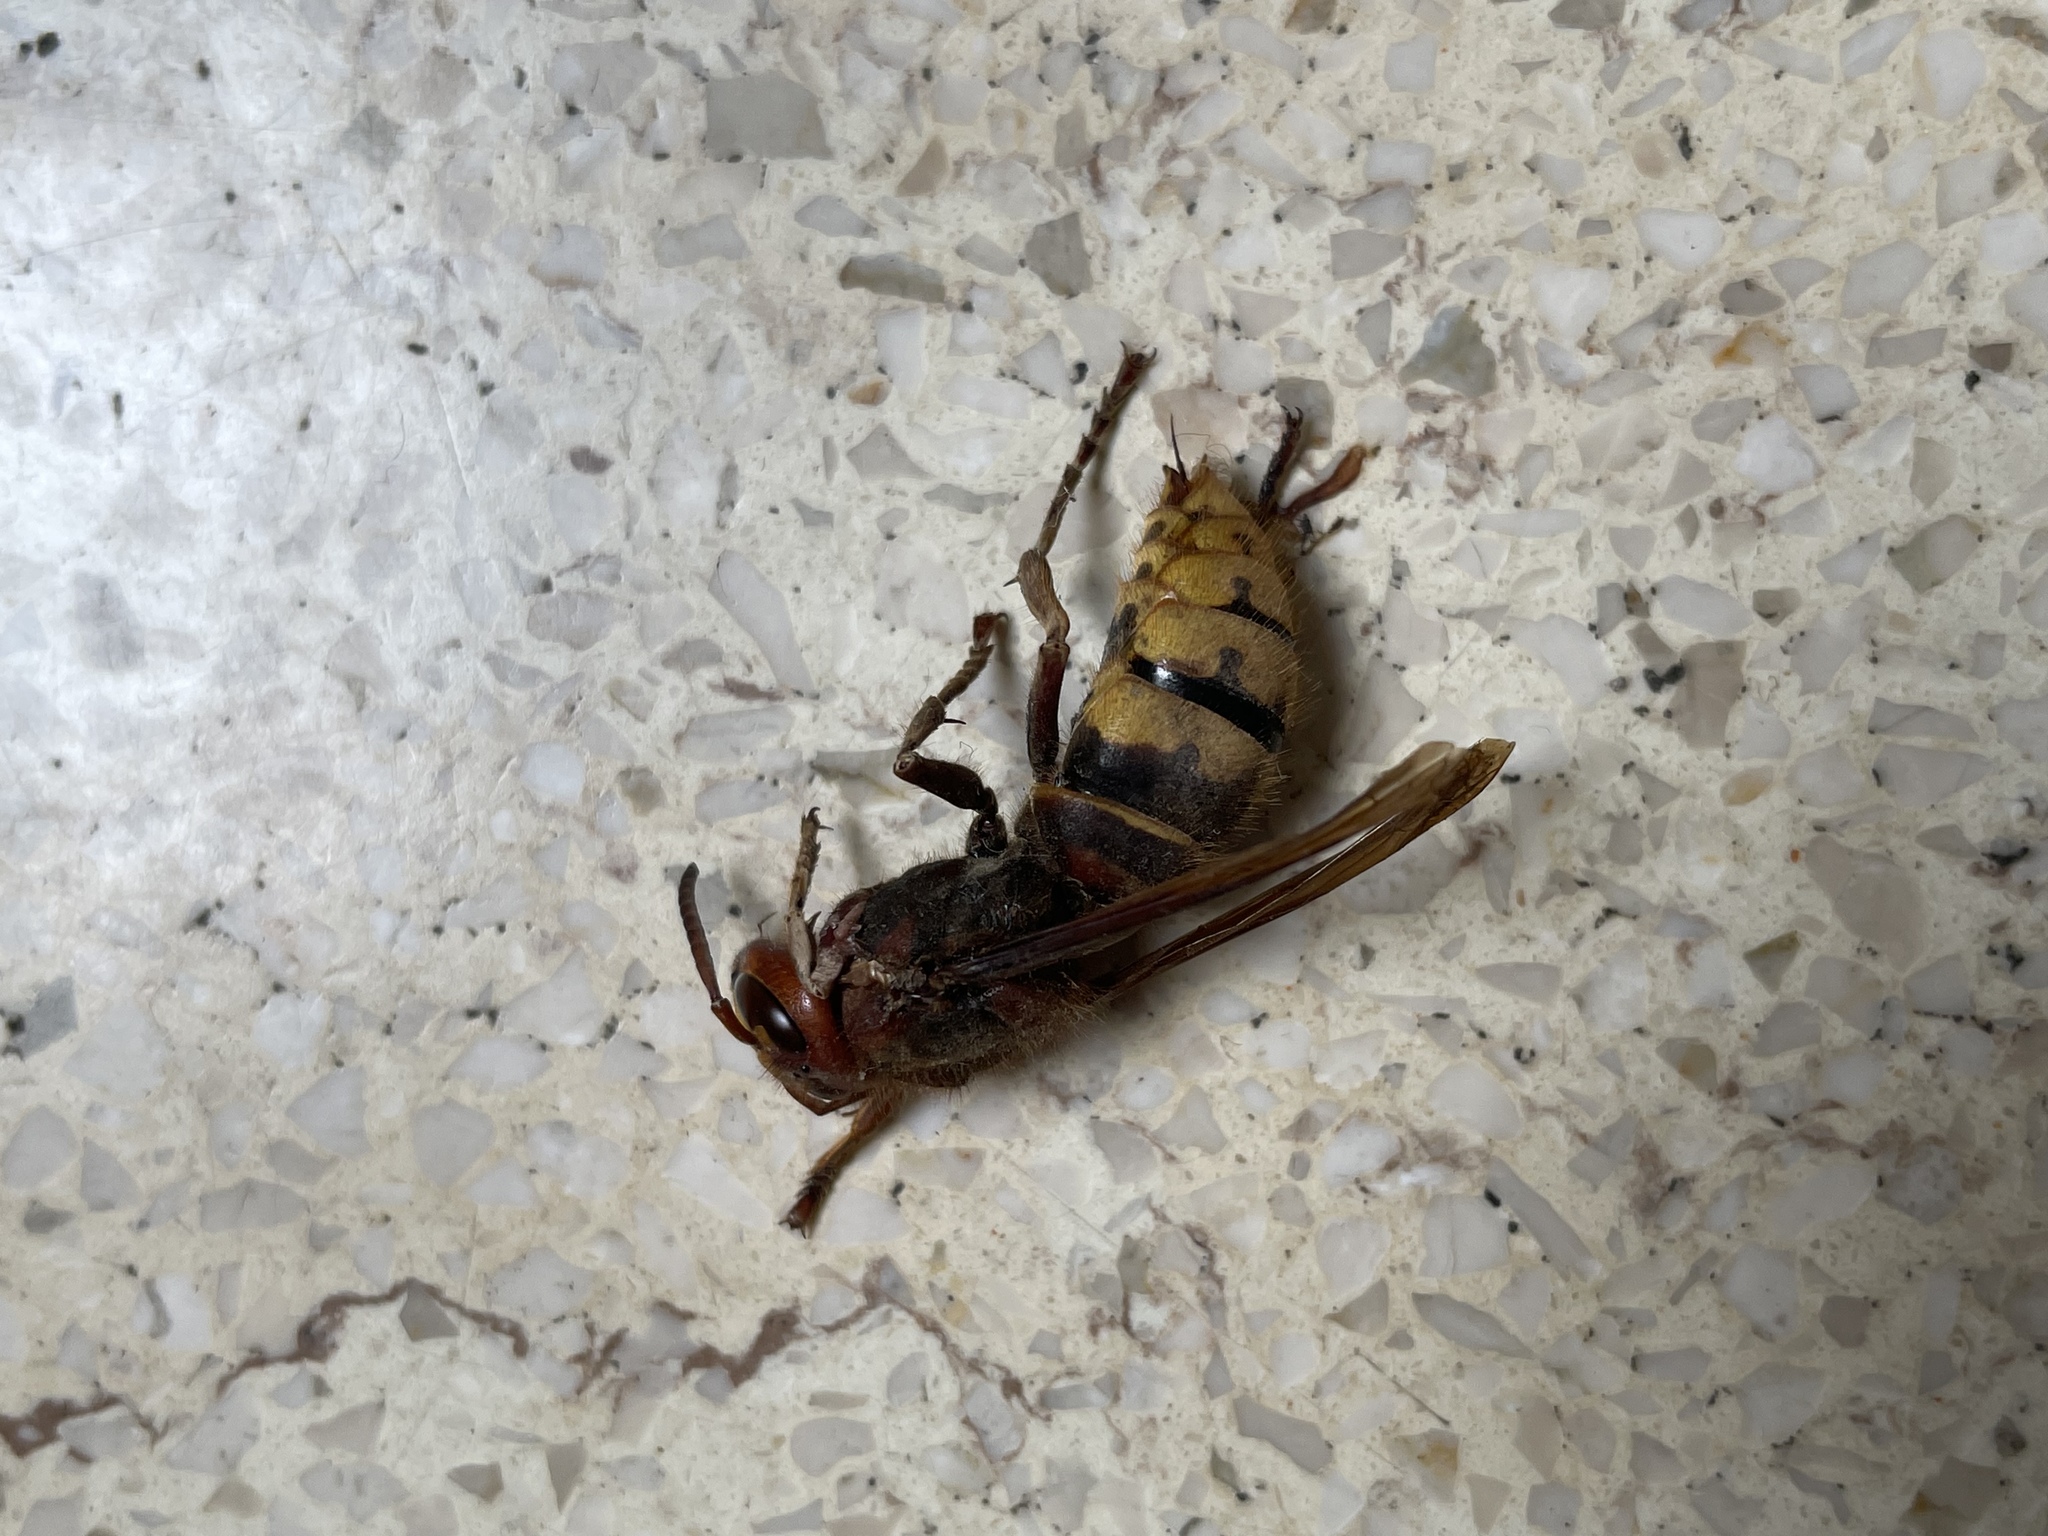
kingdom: Animalia
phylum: Arthropoda
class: Insecta
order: Hymenoptera
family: Vespidae
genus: Vespa
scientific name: Vespa crabro
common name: Hornet
